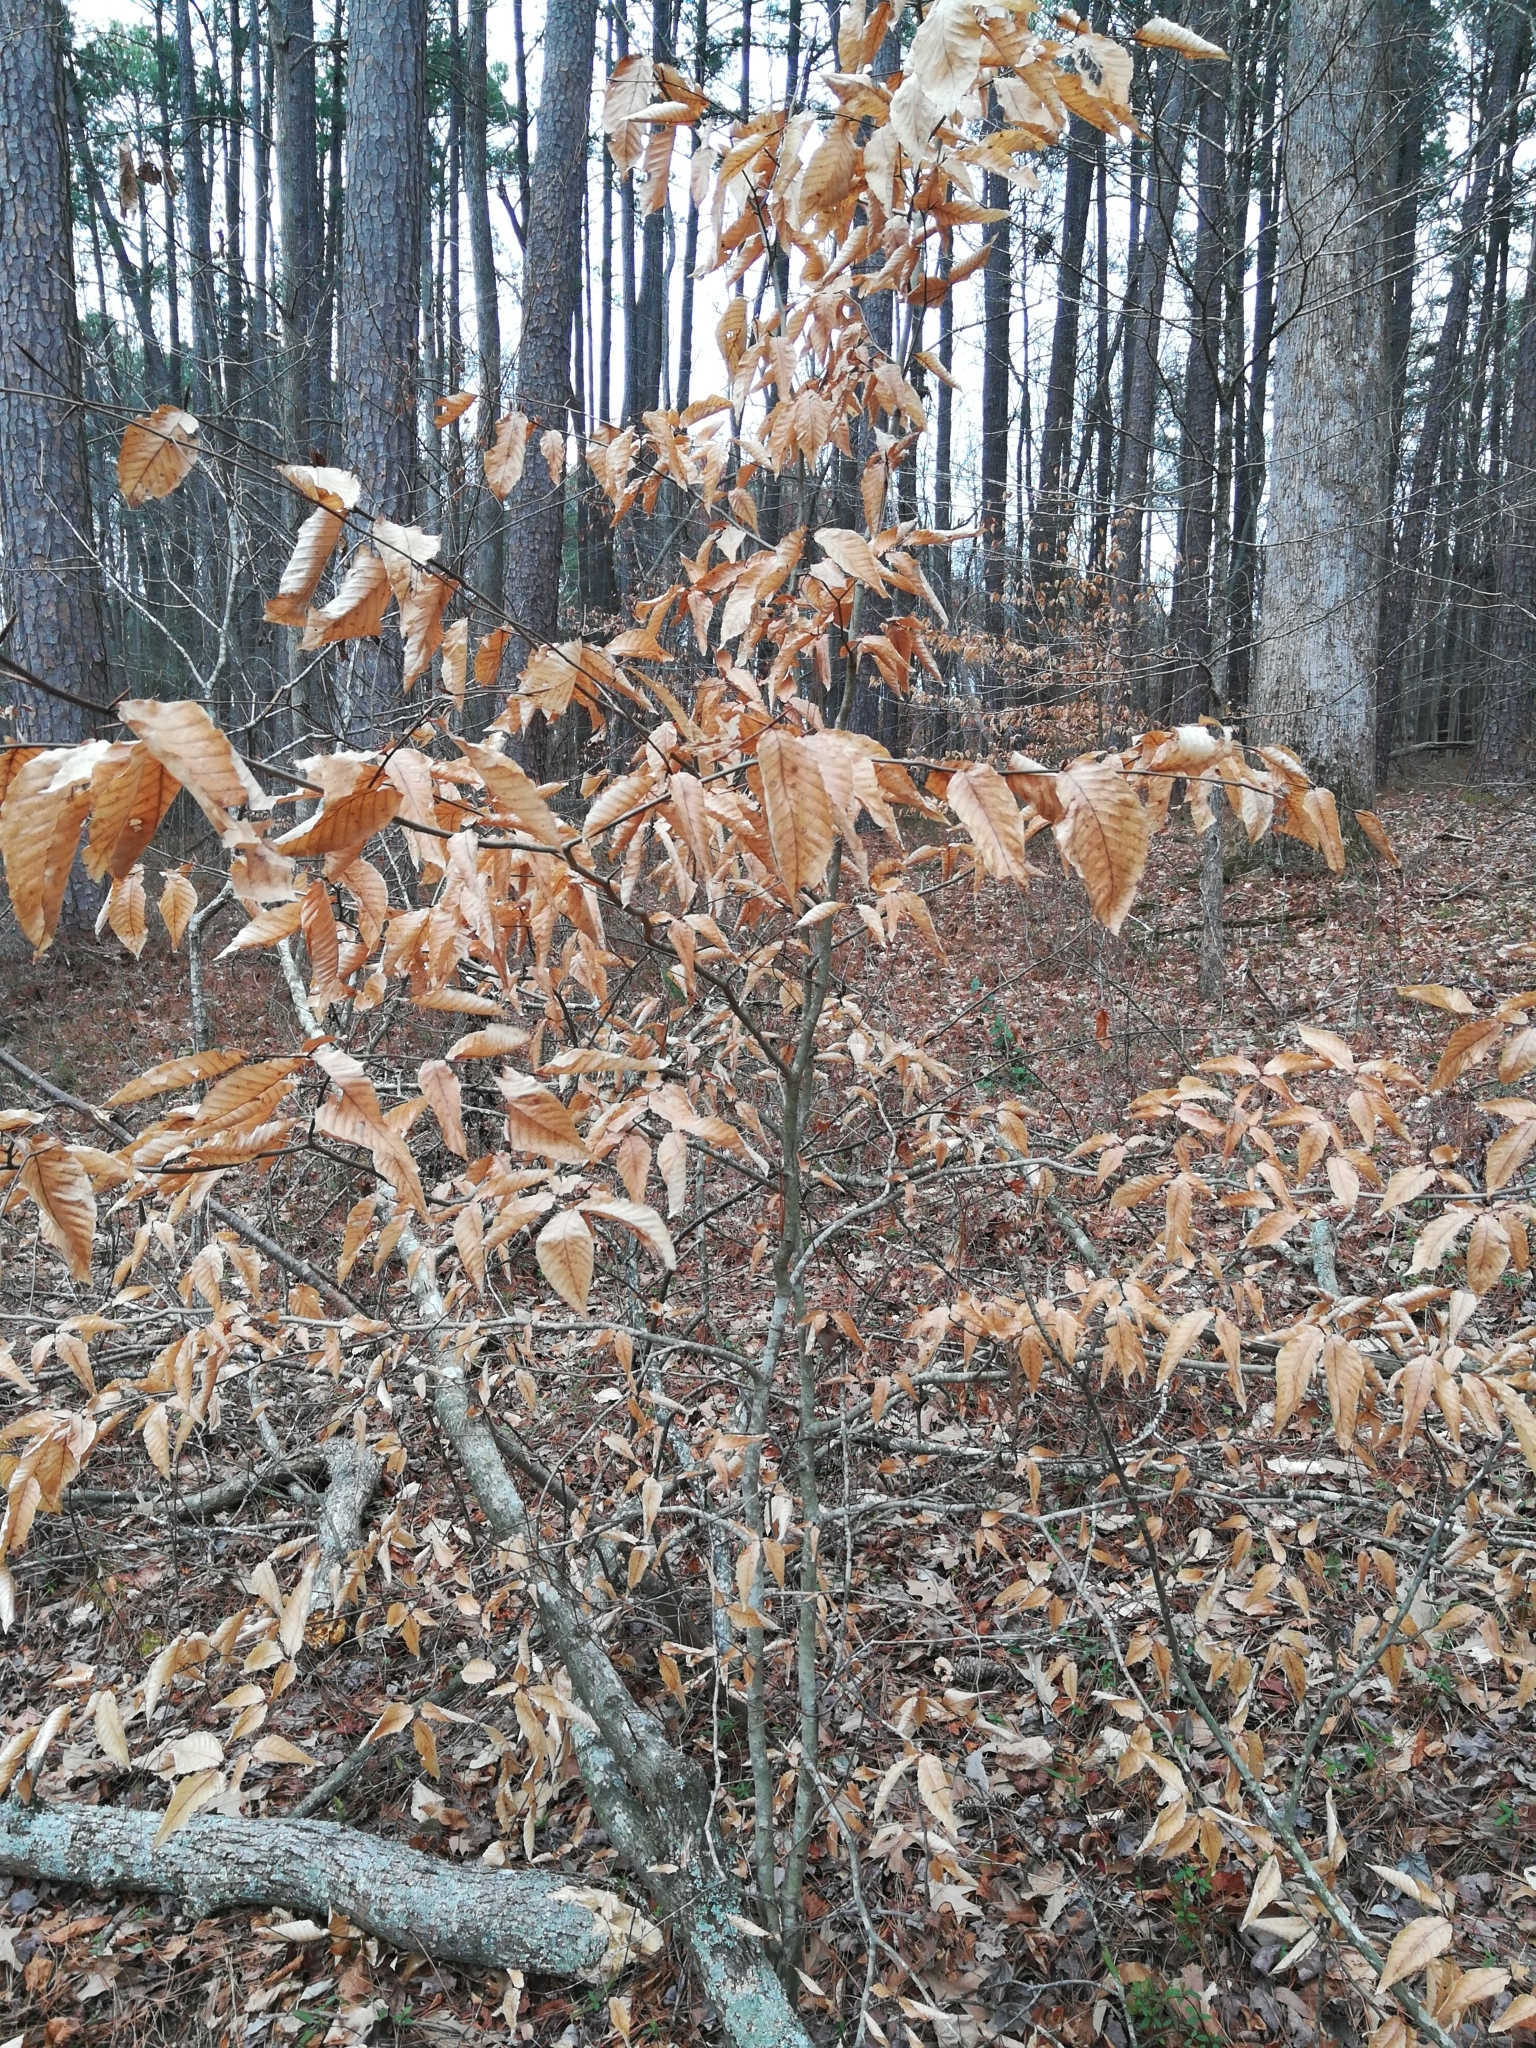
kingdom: Plantae
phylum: Tracheophyta
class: Magnoliopsida
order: Fagales
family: Fagaceae
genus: Fagus
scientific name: Fagus grandifolia
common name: American beech
